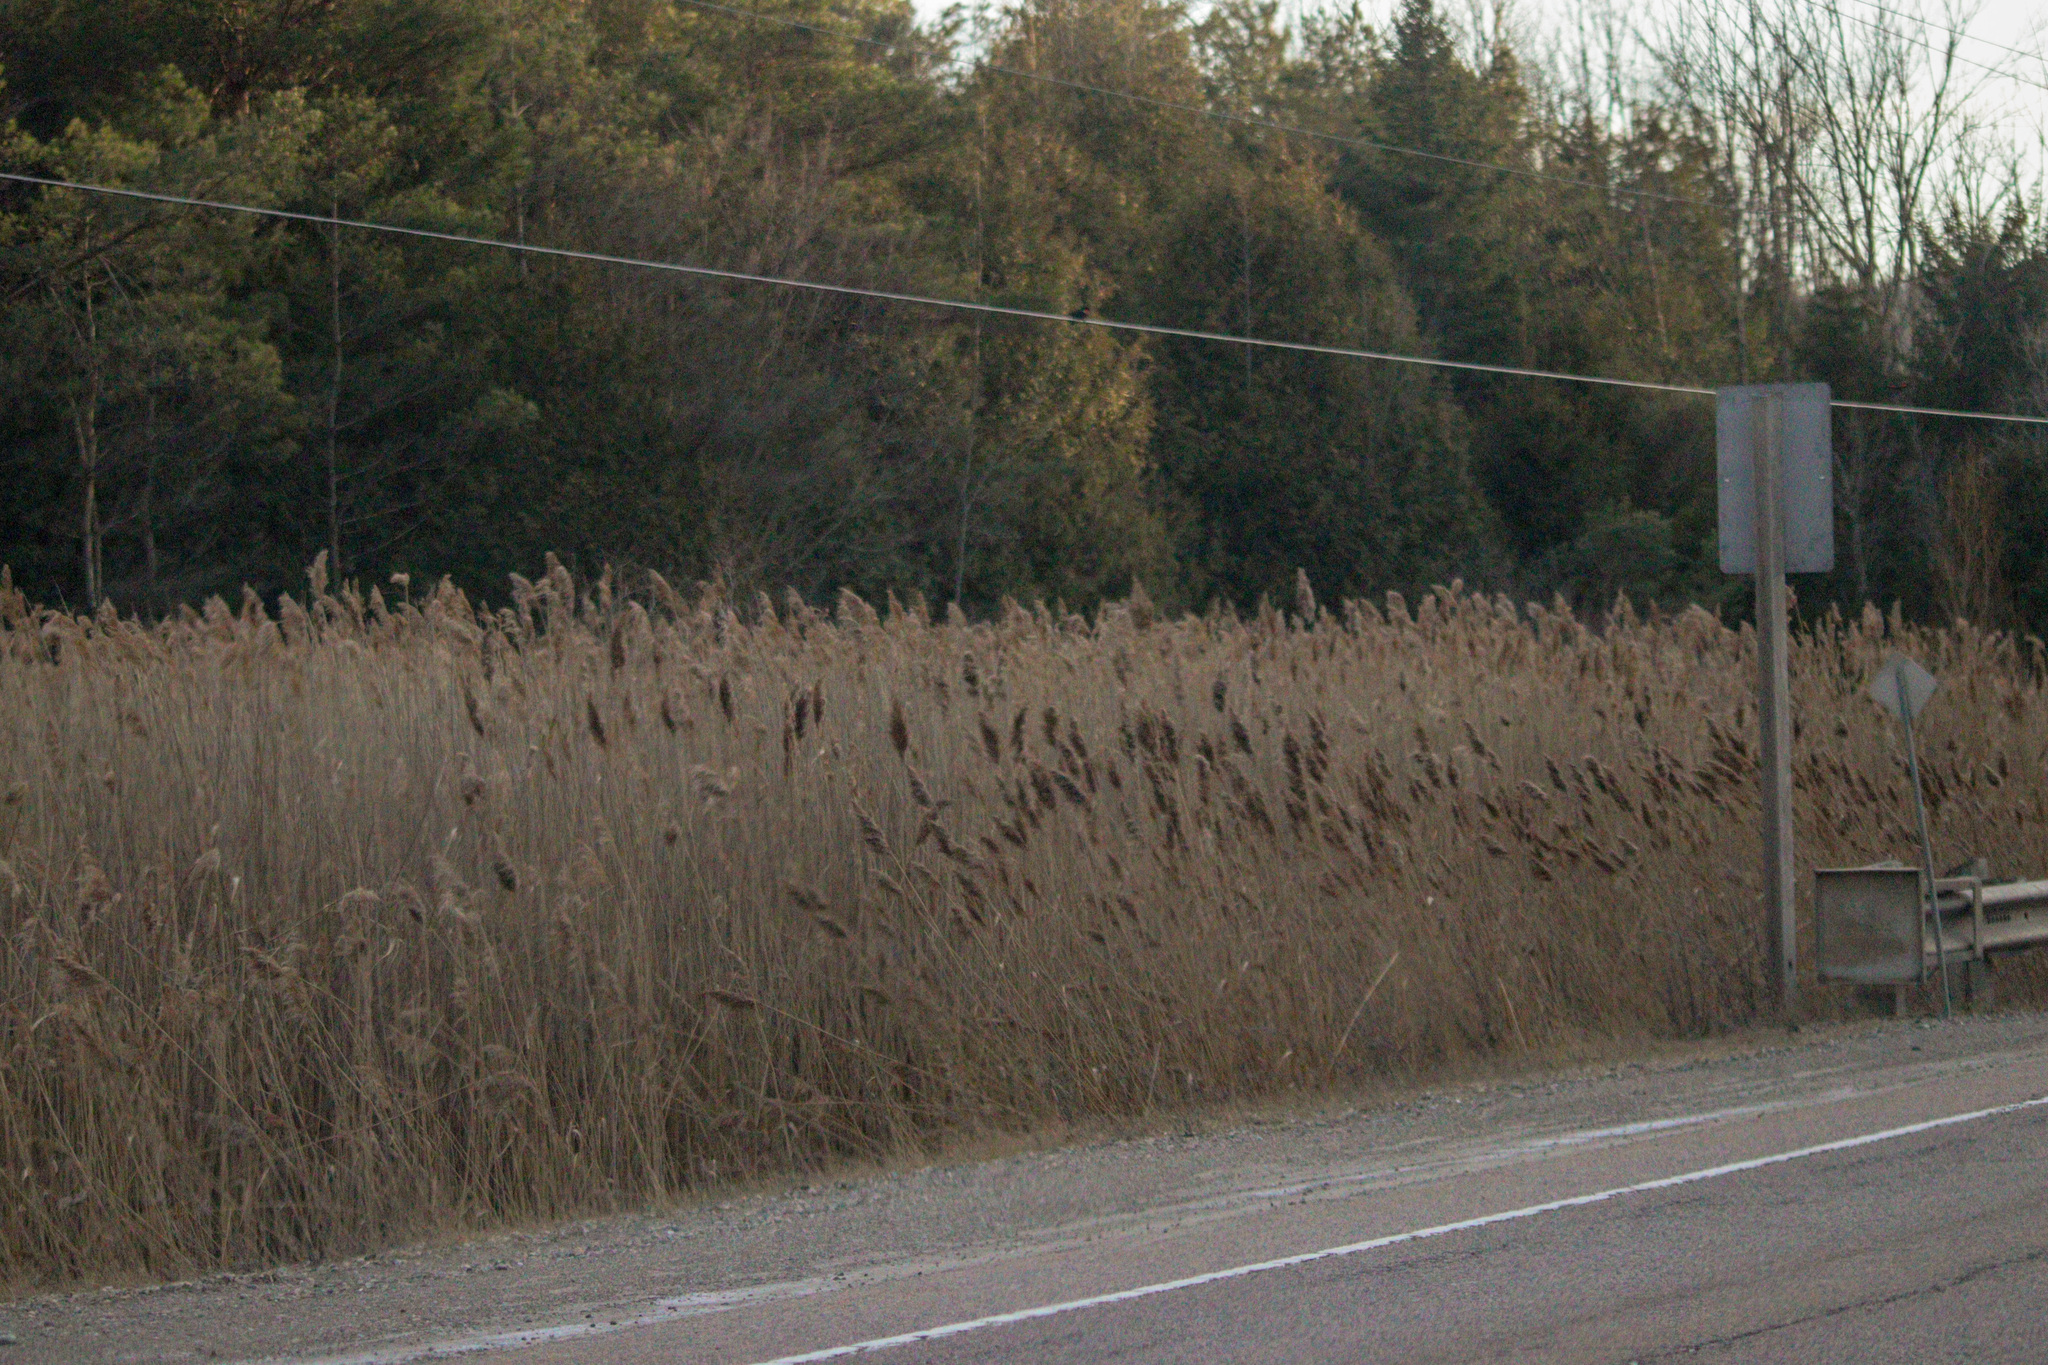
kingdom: Plantae
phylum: Tracheophyta
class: Liliopsida
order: Poales
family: Poaceae
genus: Phragmites
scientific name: Phragmites australis
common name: Common reed
